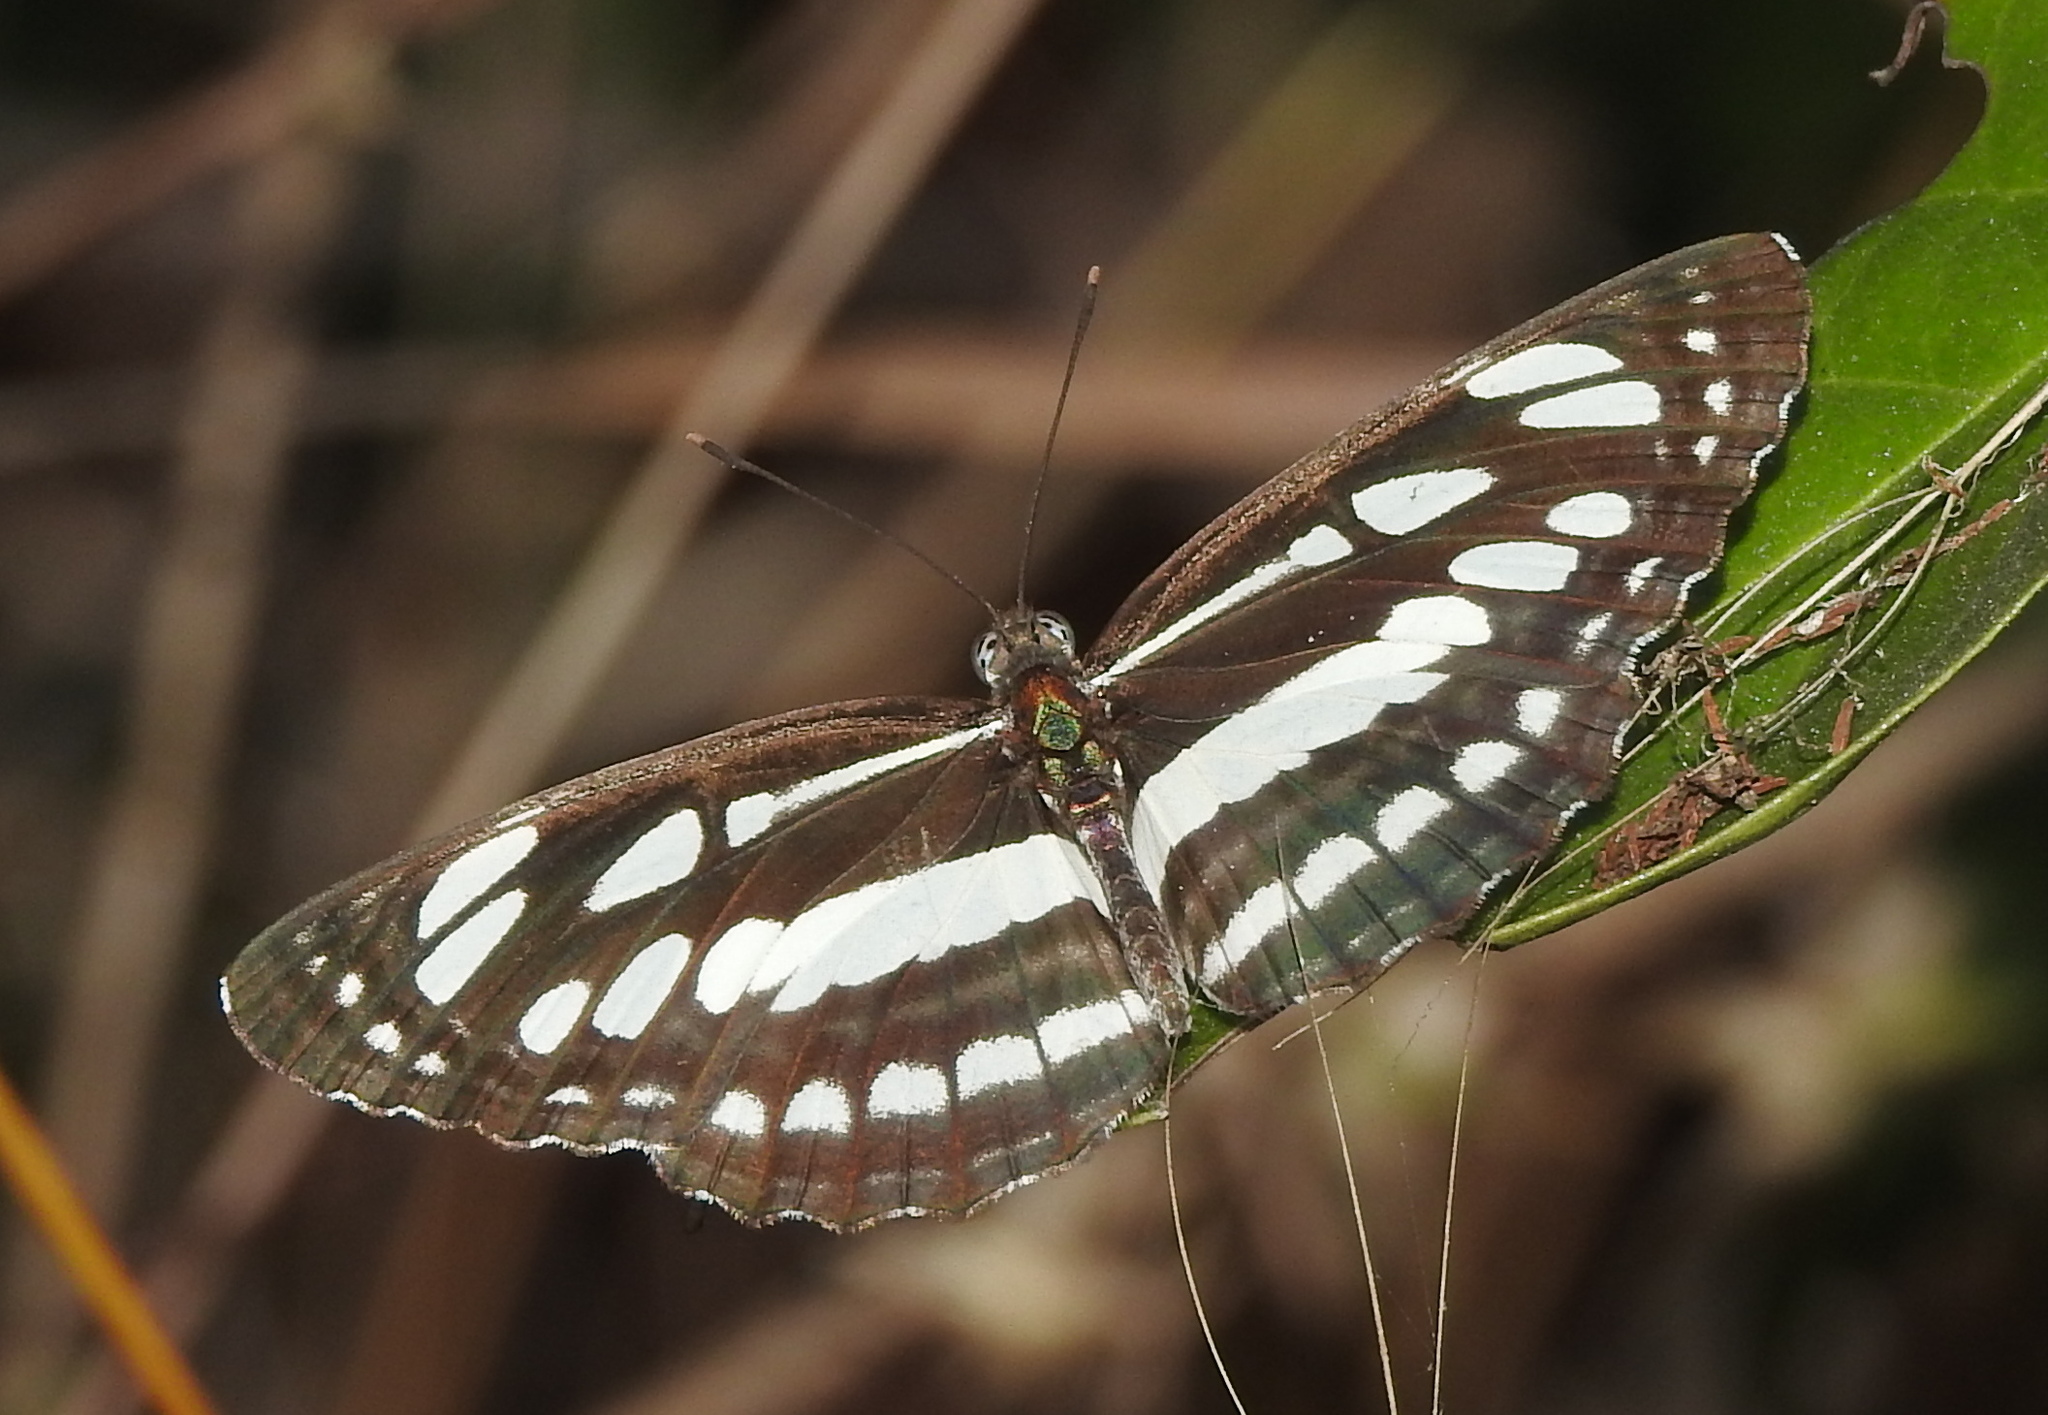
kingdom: Animalia
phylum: Arthropoda
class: Insecta
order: Lepidoptera
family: Nymphalidae
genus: Neptis
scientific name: Neptis hylas
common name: Common sailer
